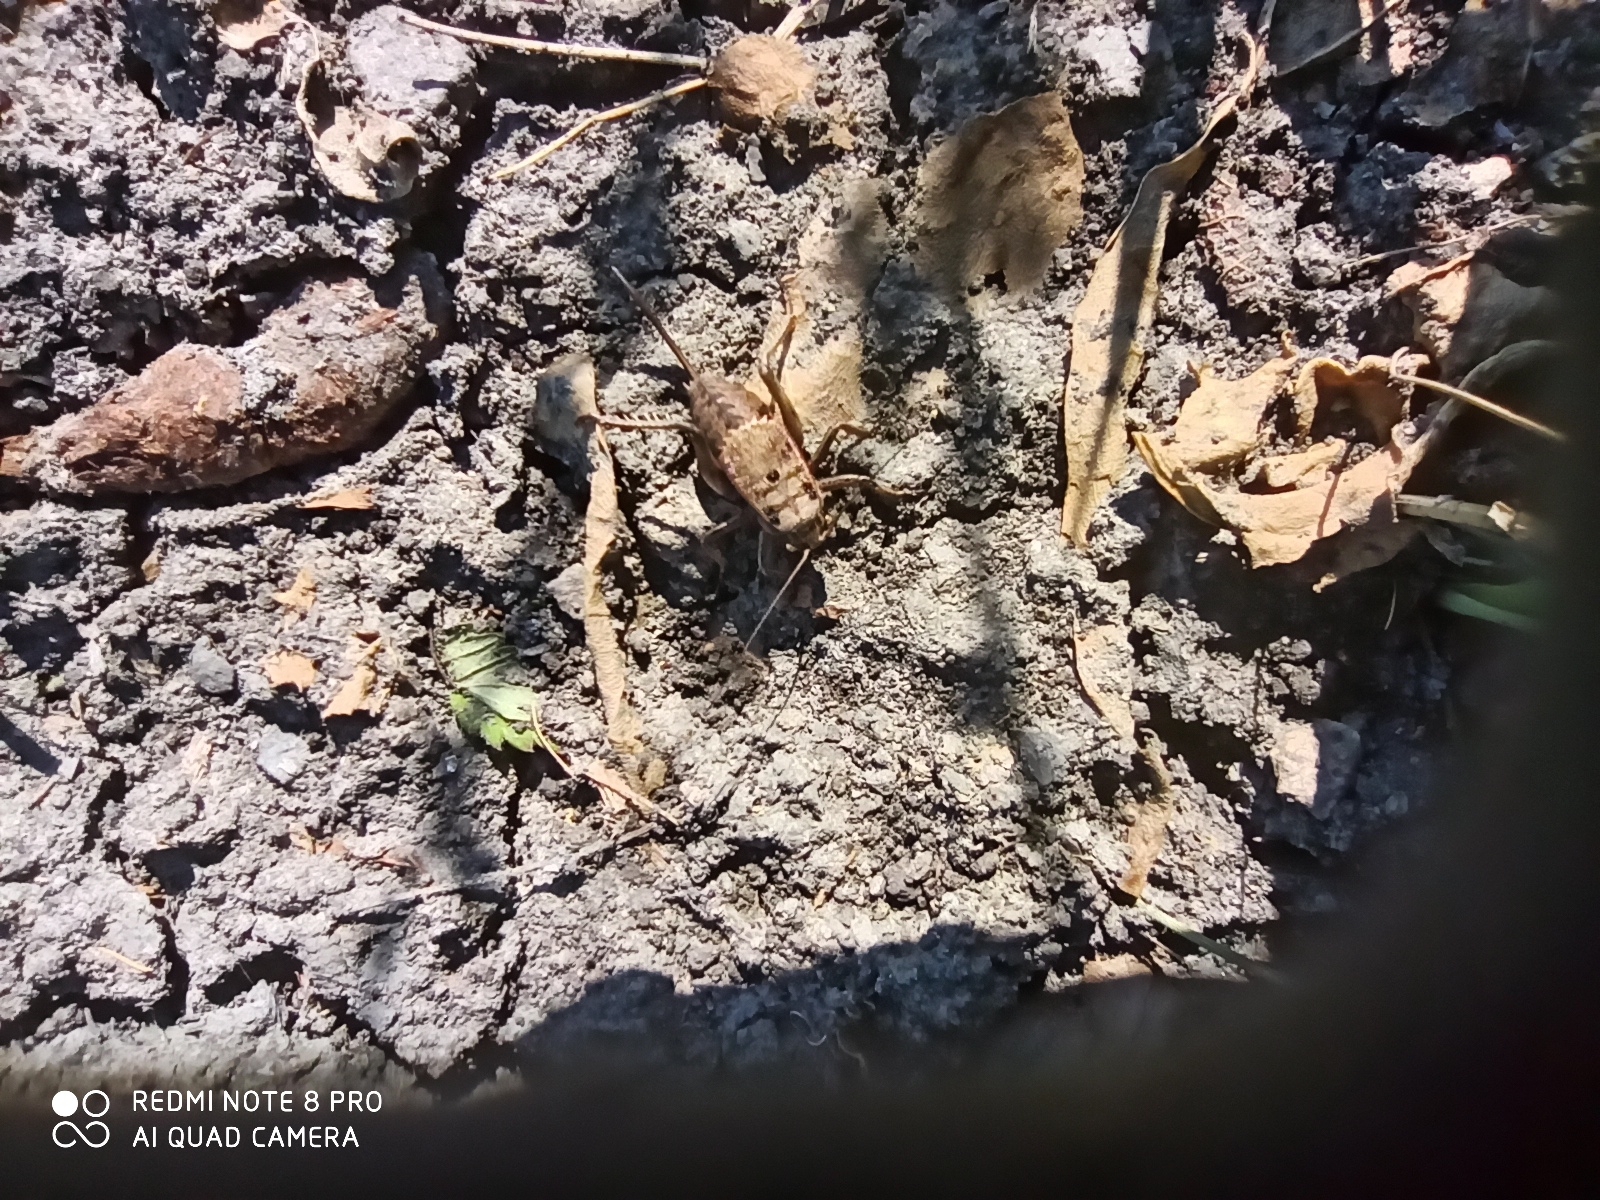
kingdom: Animalia
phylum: Arthropoda
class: Insecta
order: Orthoptera
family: Tettigoniidae
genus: Onconotus
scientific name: Onconotus servillei
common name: Southern barbed-wire bush-cricket
